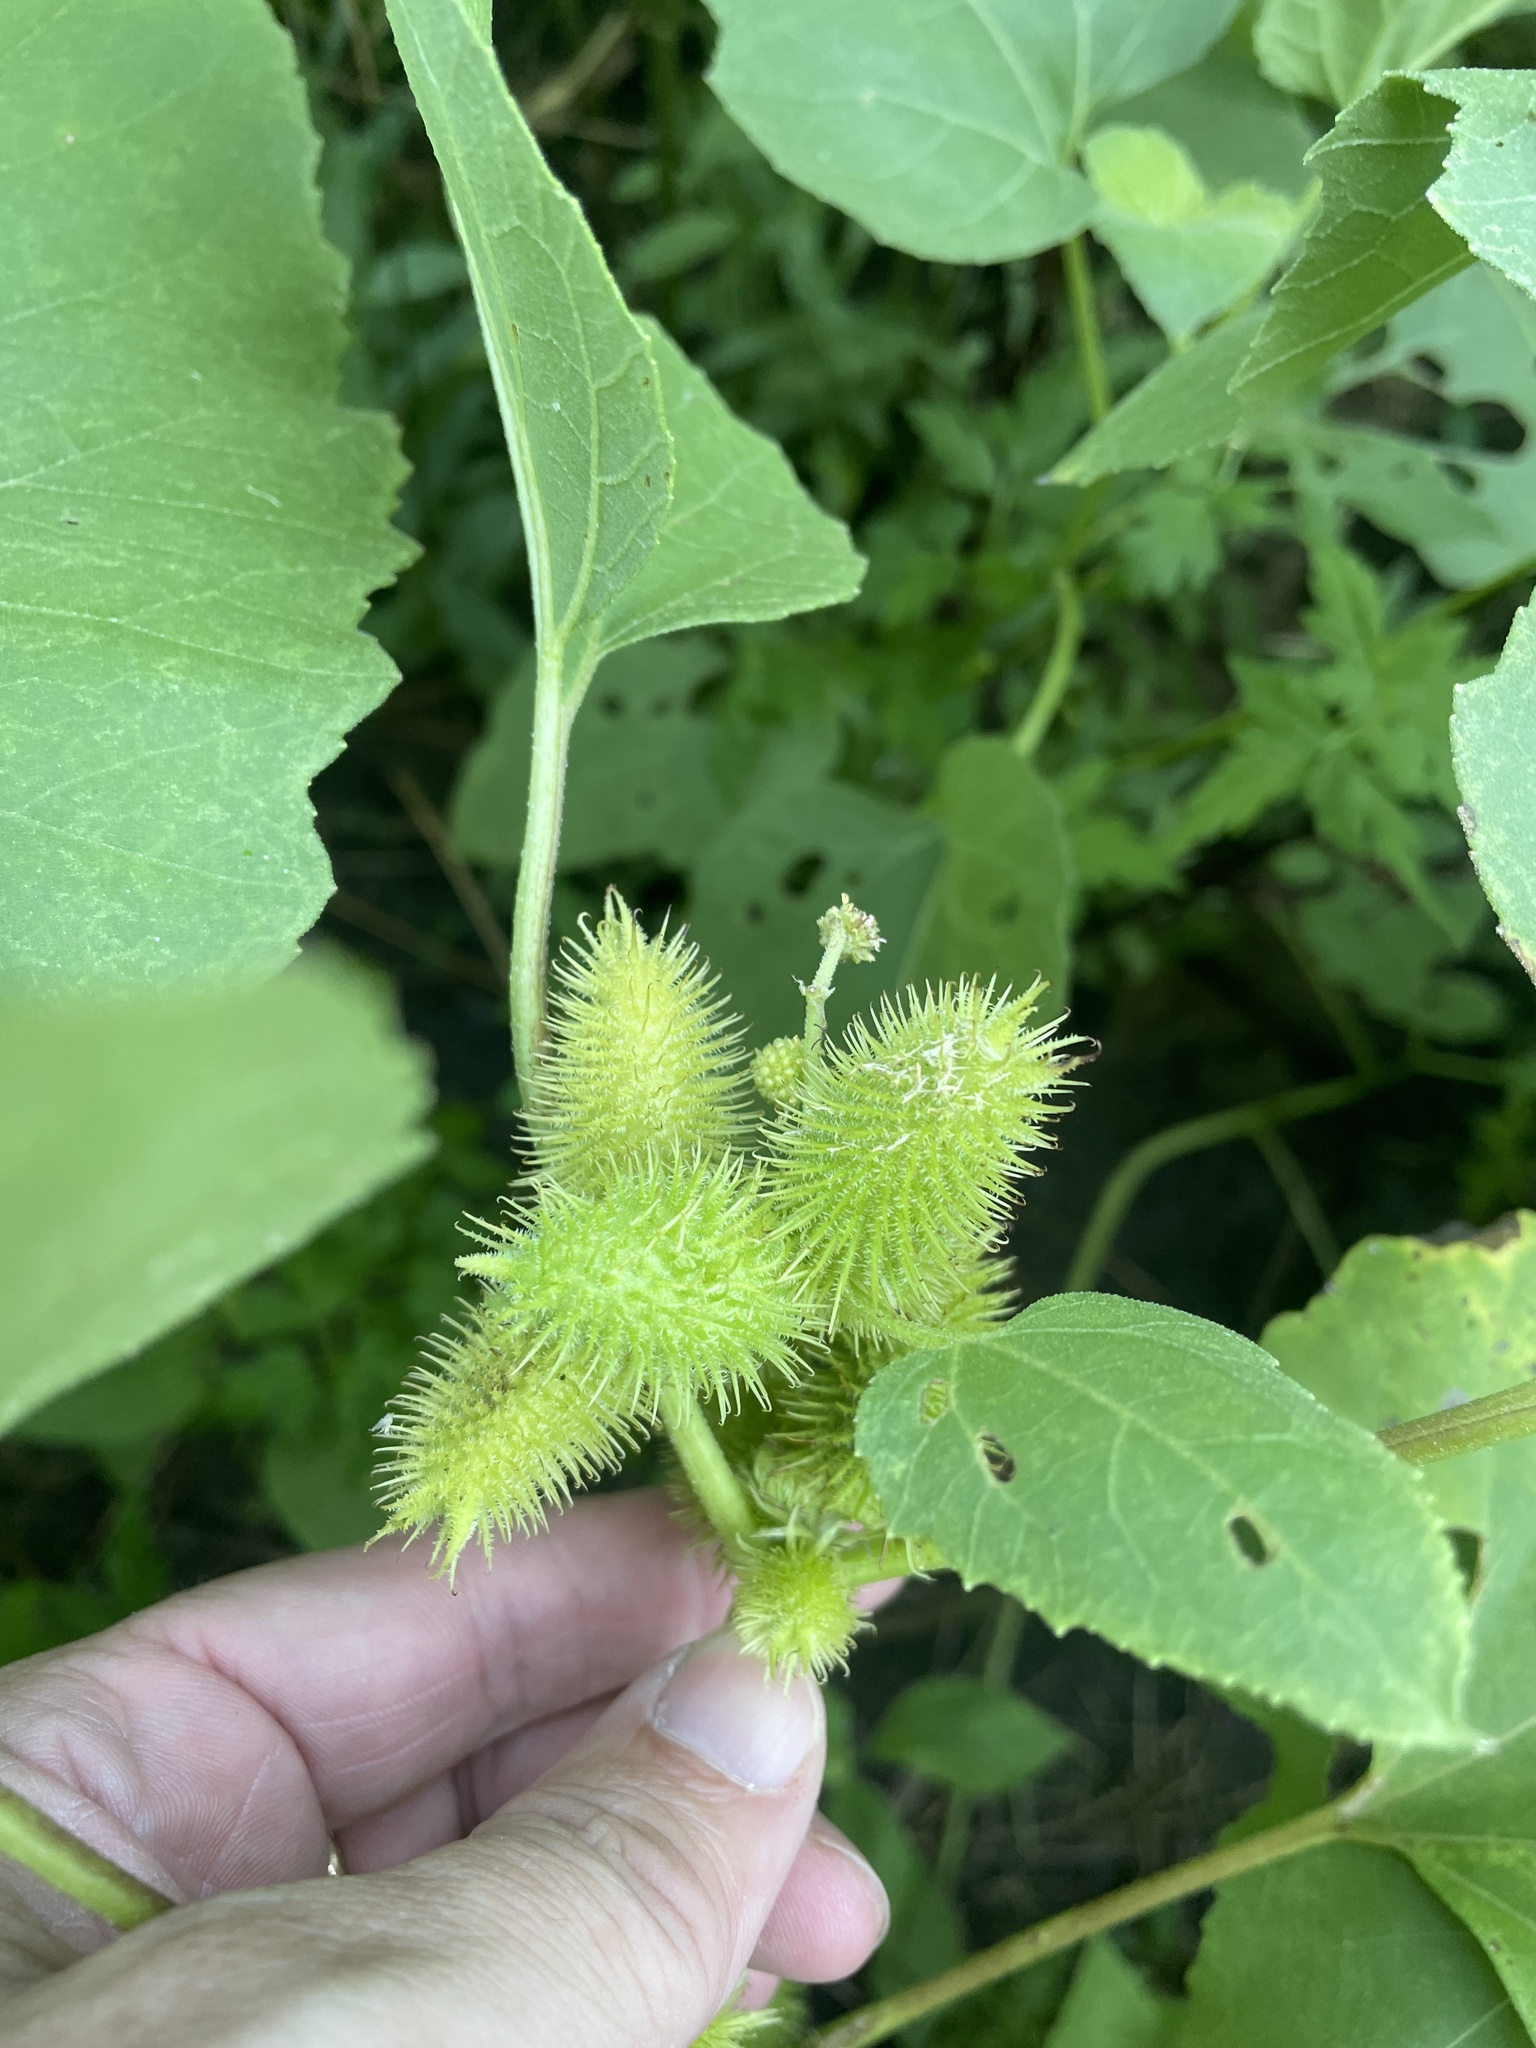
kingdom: Plantae
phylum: Tracheophyta
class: Magnoliopsida
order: Asterales
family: Asteraceae
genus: Xanthium
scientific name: Xanthium strumarium
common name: Rough cocklebur
